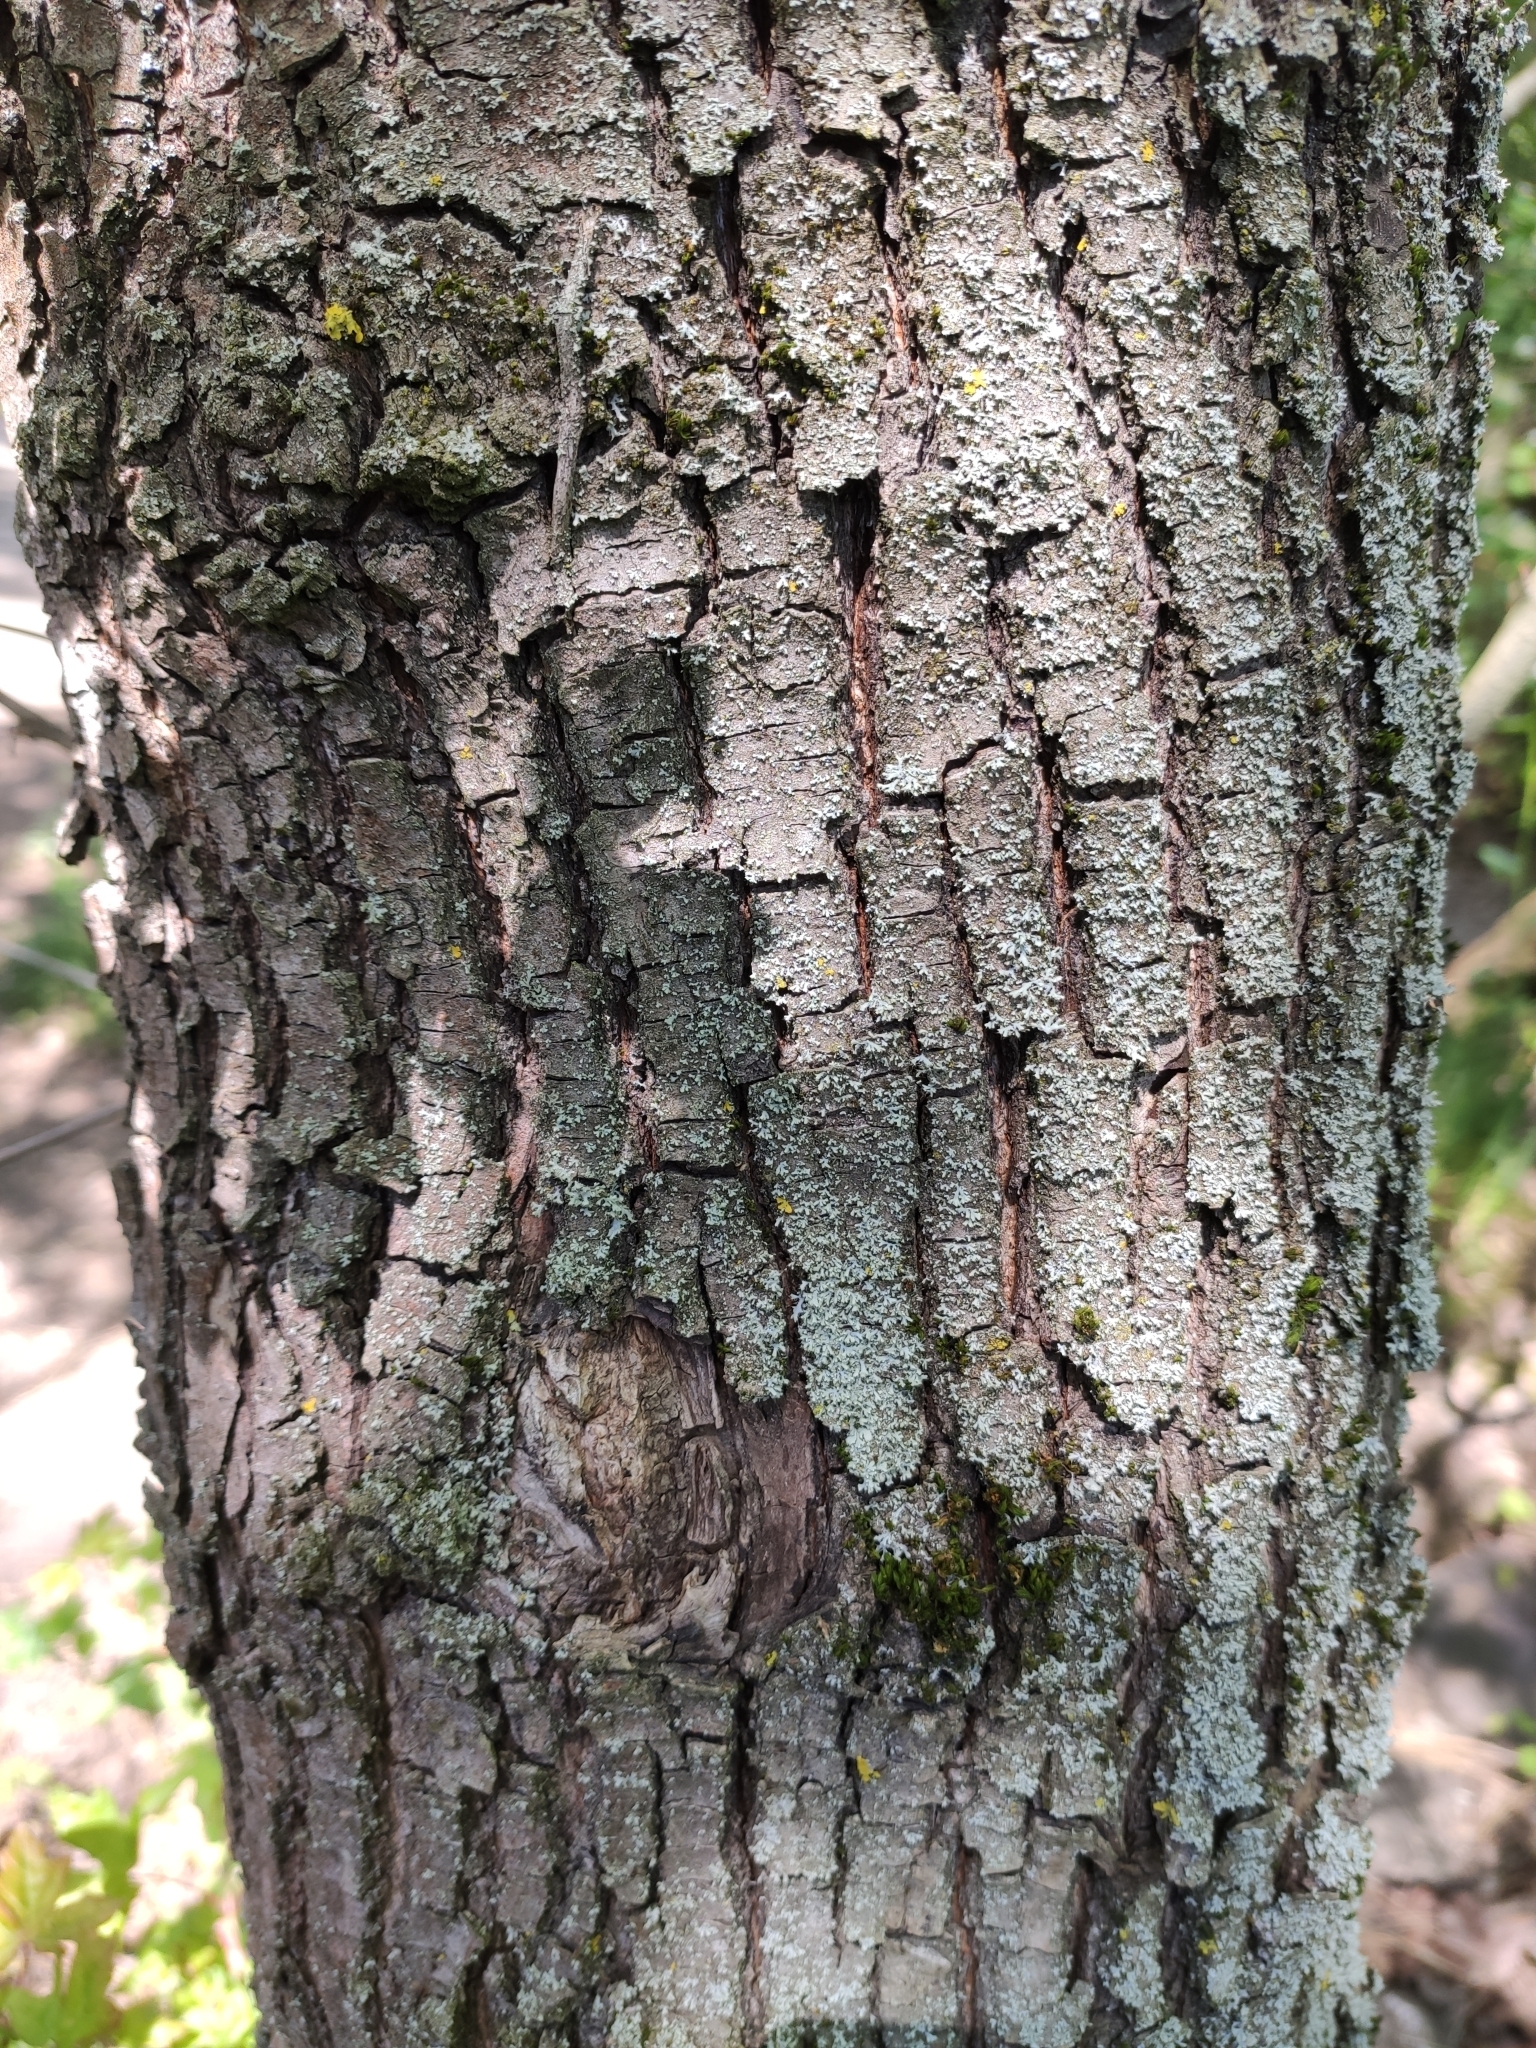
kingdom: Plantae
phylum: Tracheophyta
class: Magnoliopsida
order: Sapindales
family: Sapindaceae
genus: Acer
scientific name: Acer campestre
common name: Field maple
